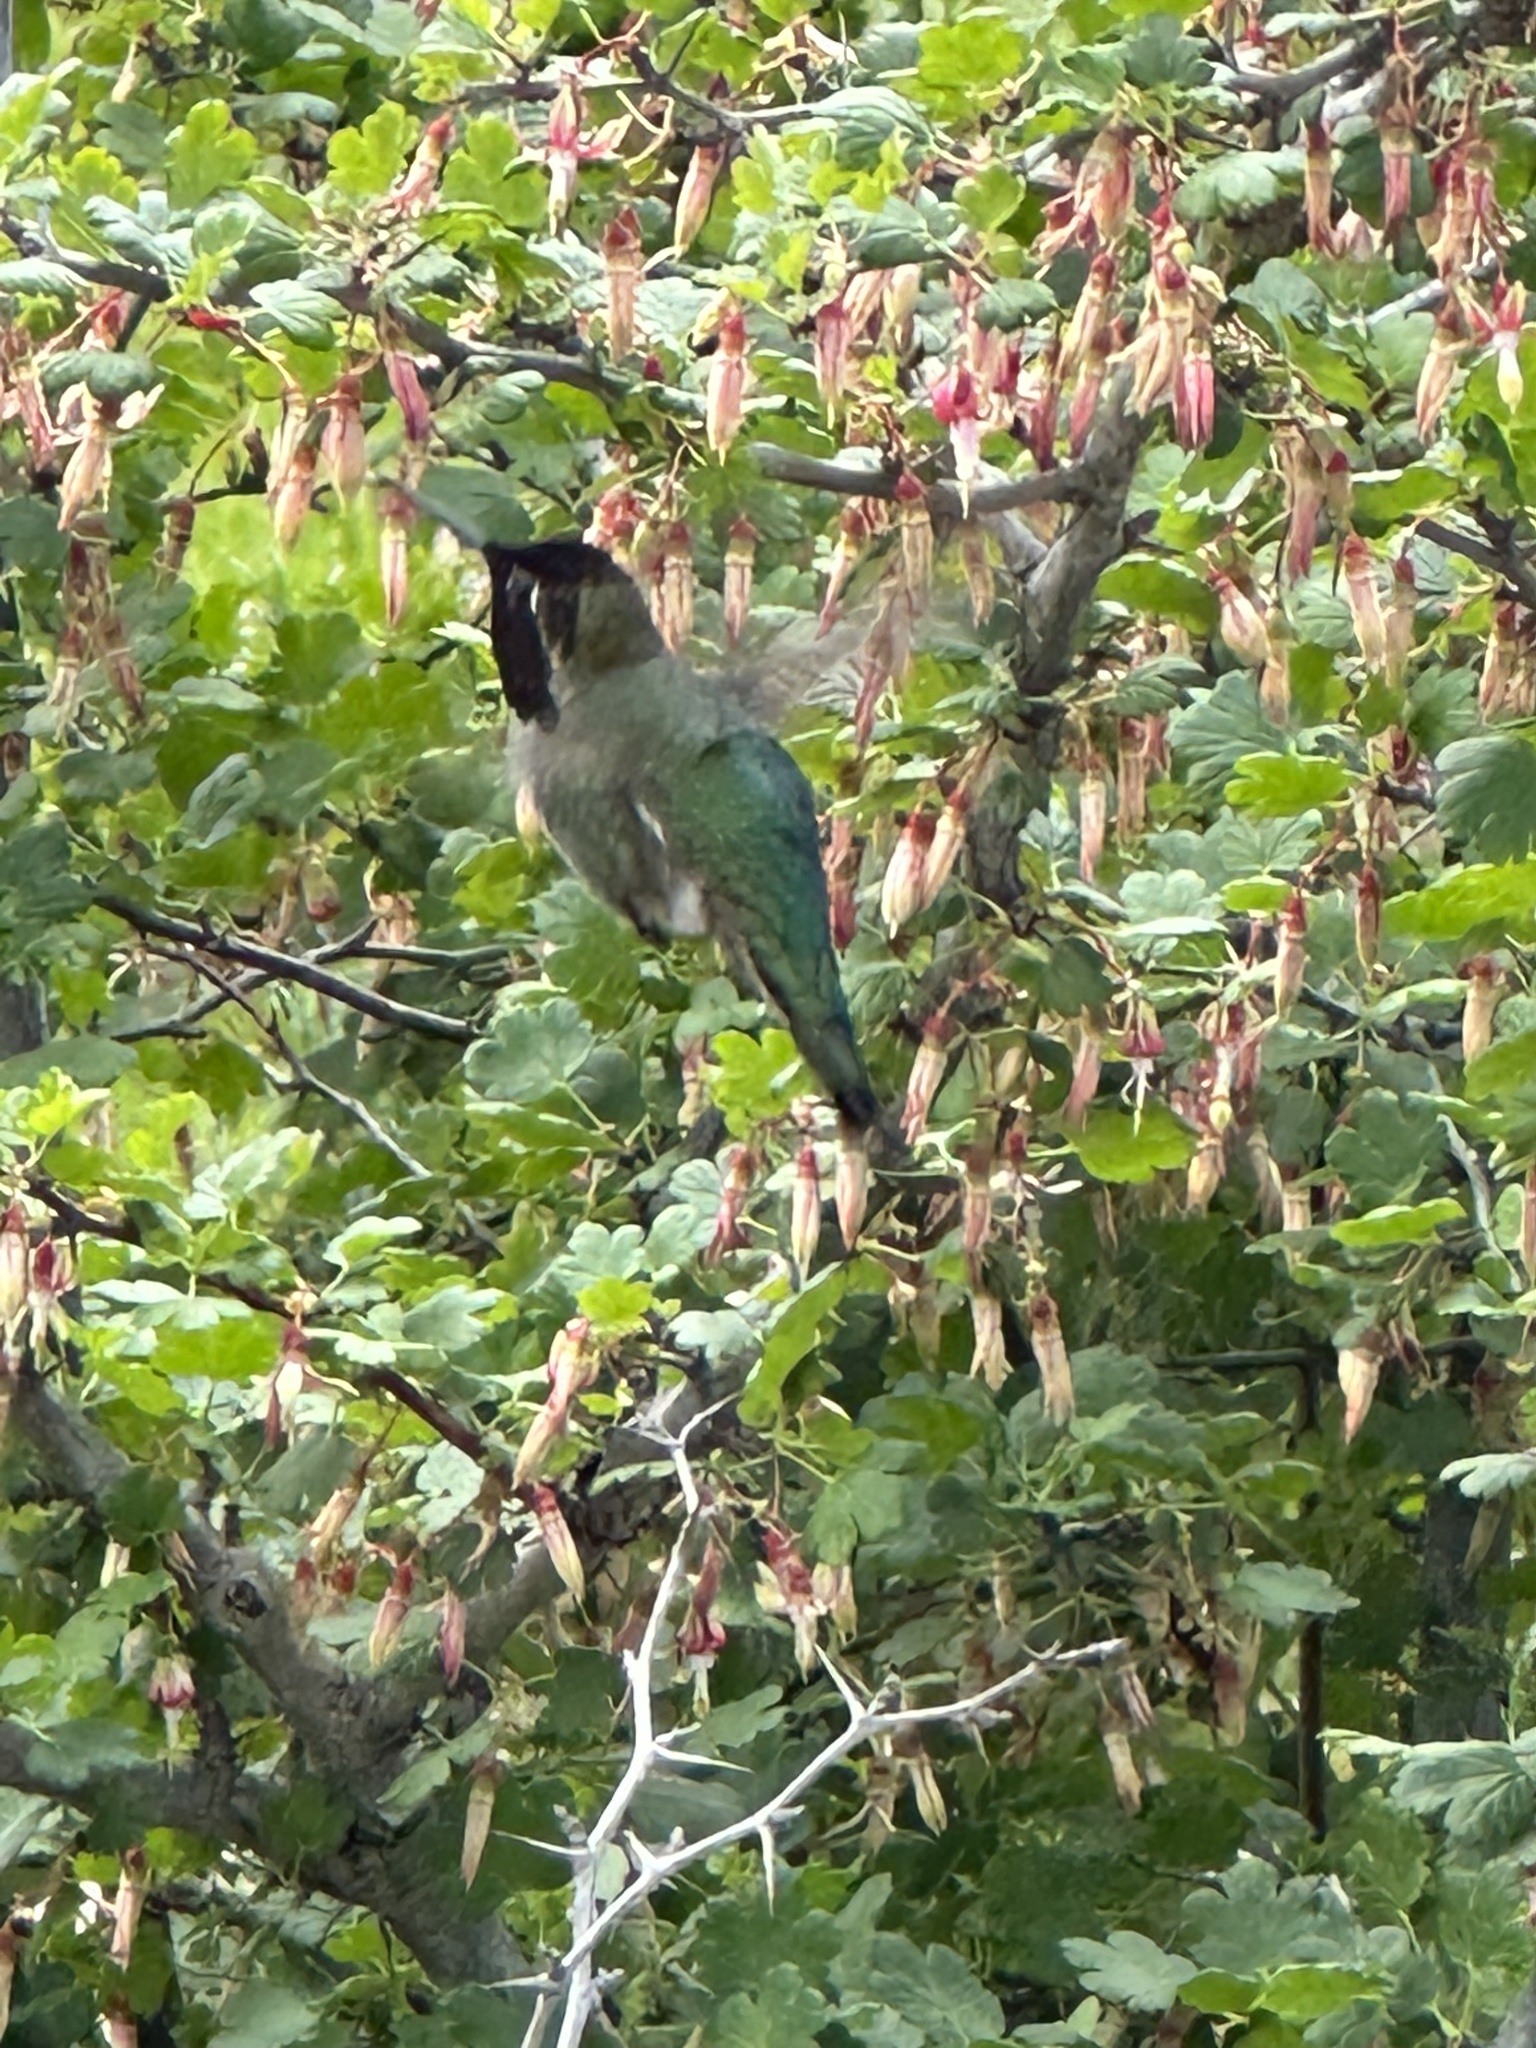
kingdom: Animalia
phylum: Chordata
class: Aves
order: Apodiformes
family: Trochilidae
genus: Calypte
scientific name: Calypte anna
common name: Anna's hummingbird
